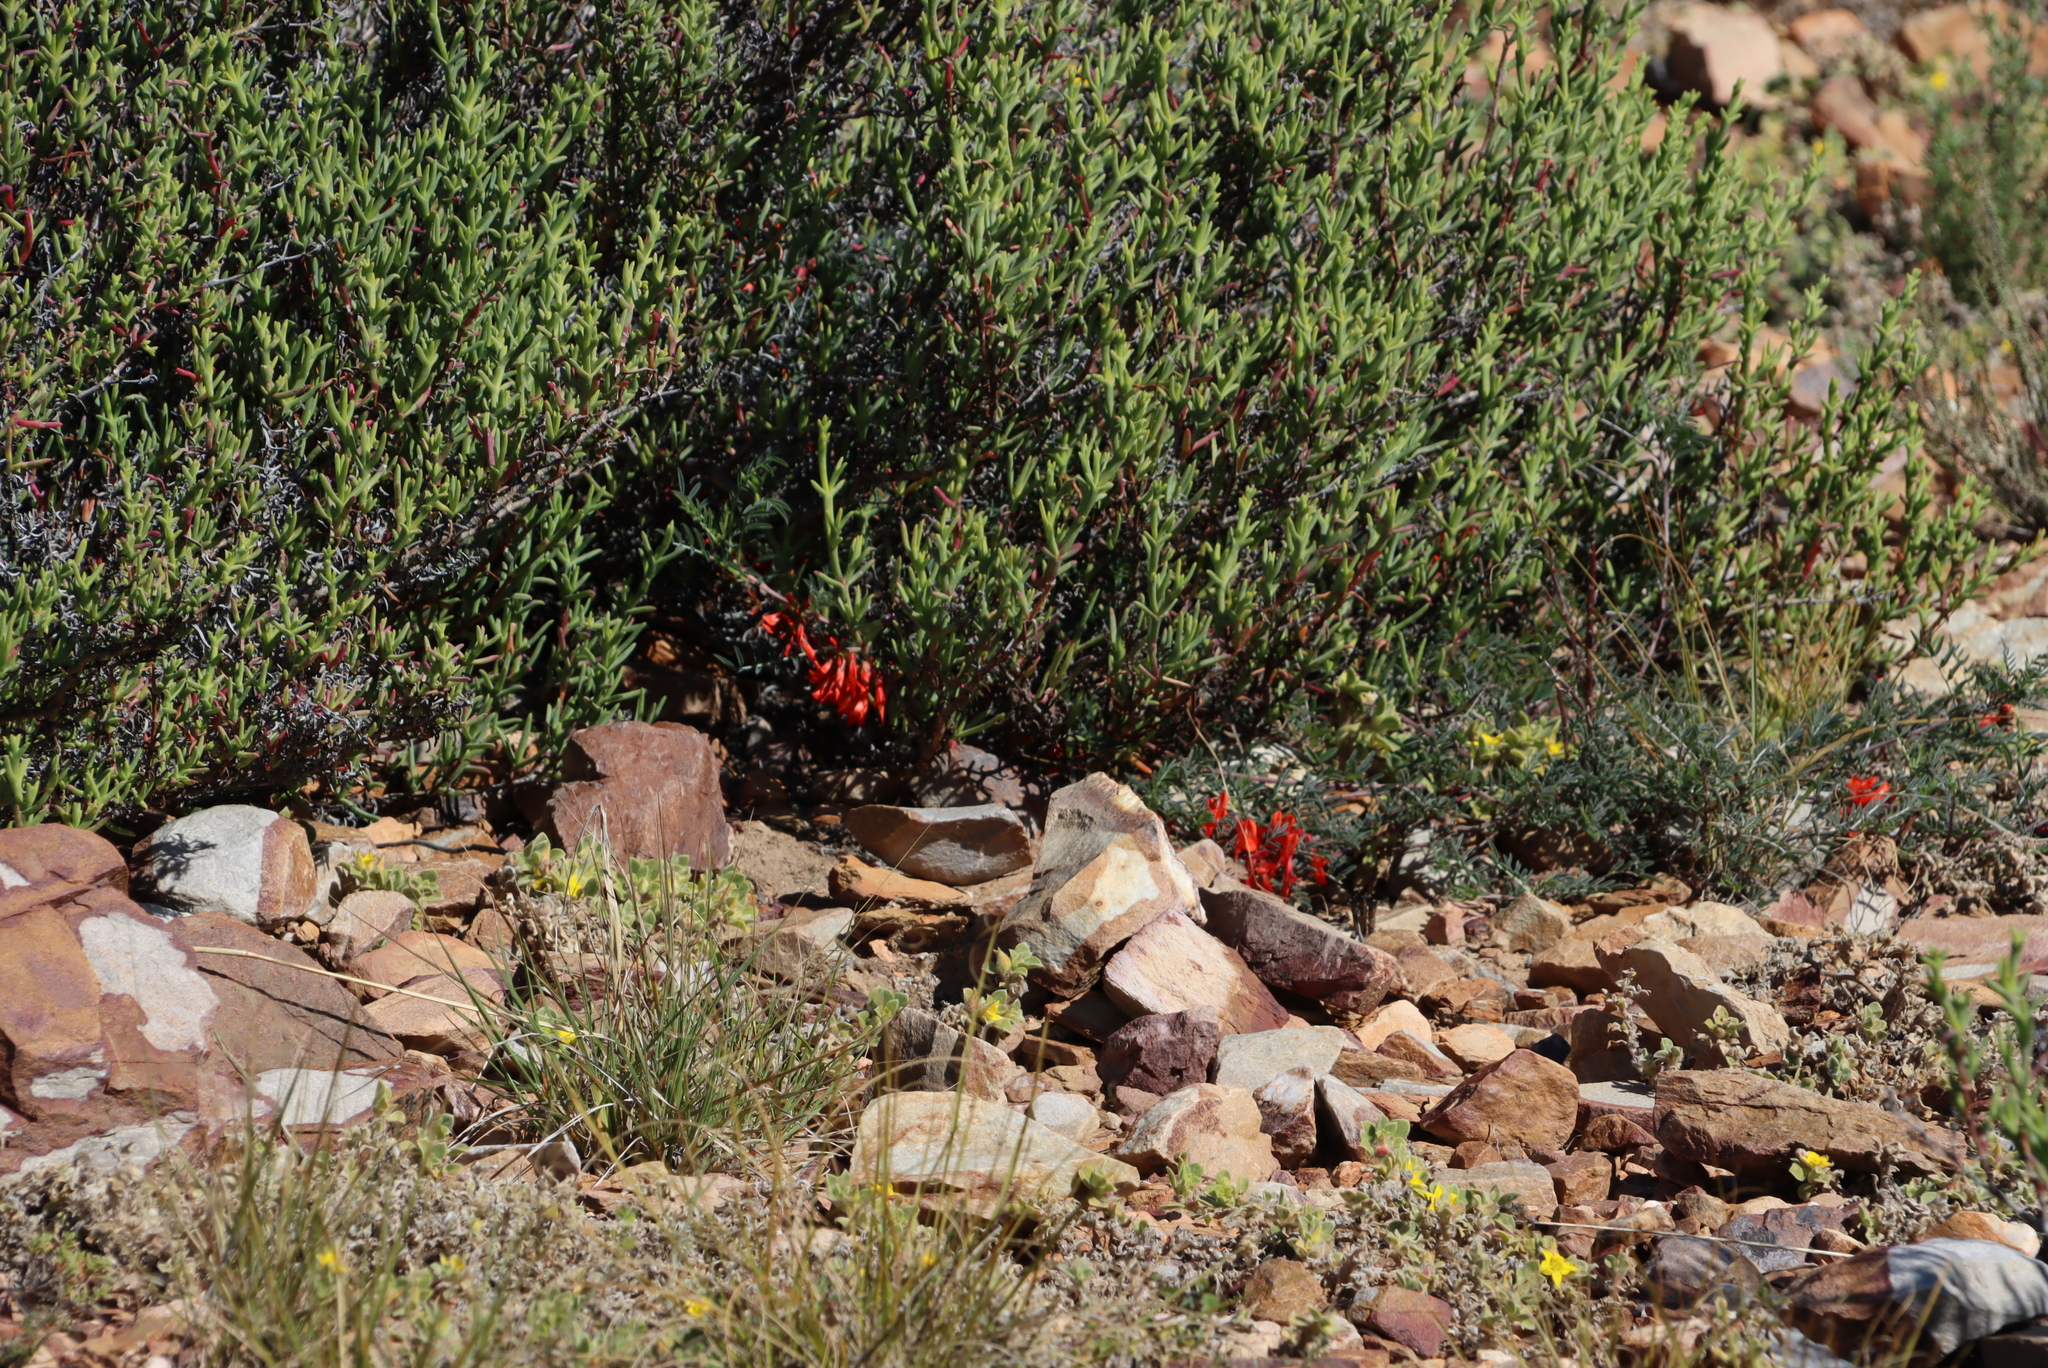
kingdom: Plantae
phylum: Tracheophyta
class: Magnoliopsida
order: Fabales
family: Fabaceae
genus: Lessertia
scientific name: Lessertia frutescens
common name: Balloon-pea
